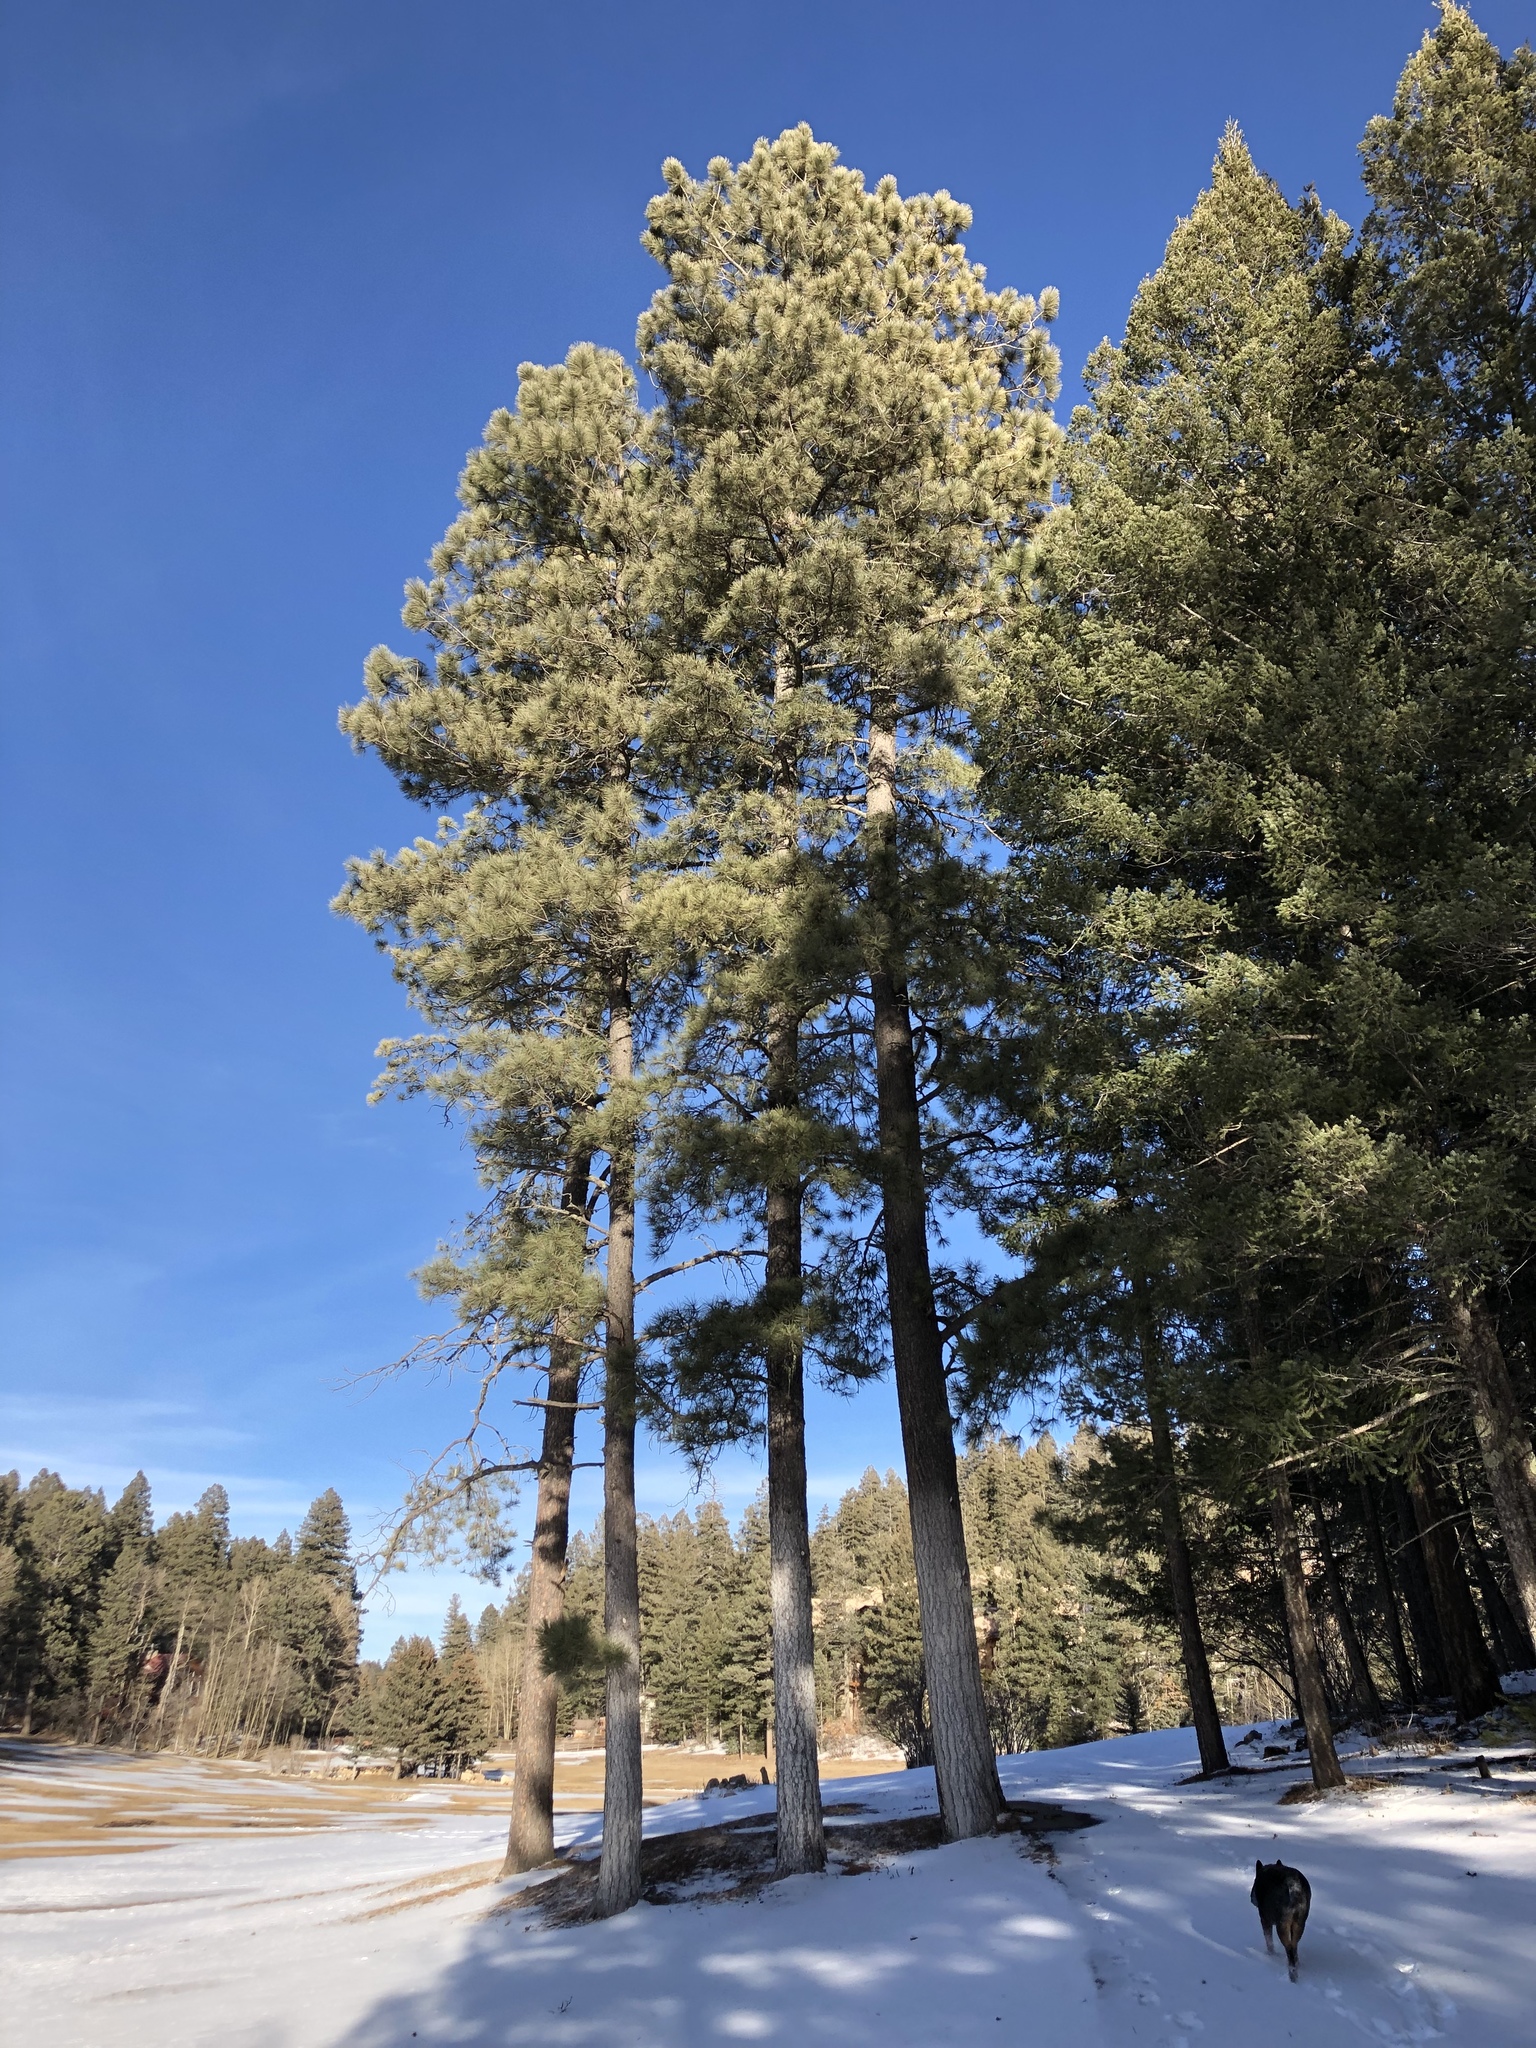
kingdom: Plantae
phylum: Tracheophyta
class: Pinopsida
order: Pinales
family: Pinaceae
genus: Pinus
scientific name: Pinus ponderosa
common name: Western yellow-pine
